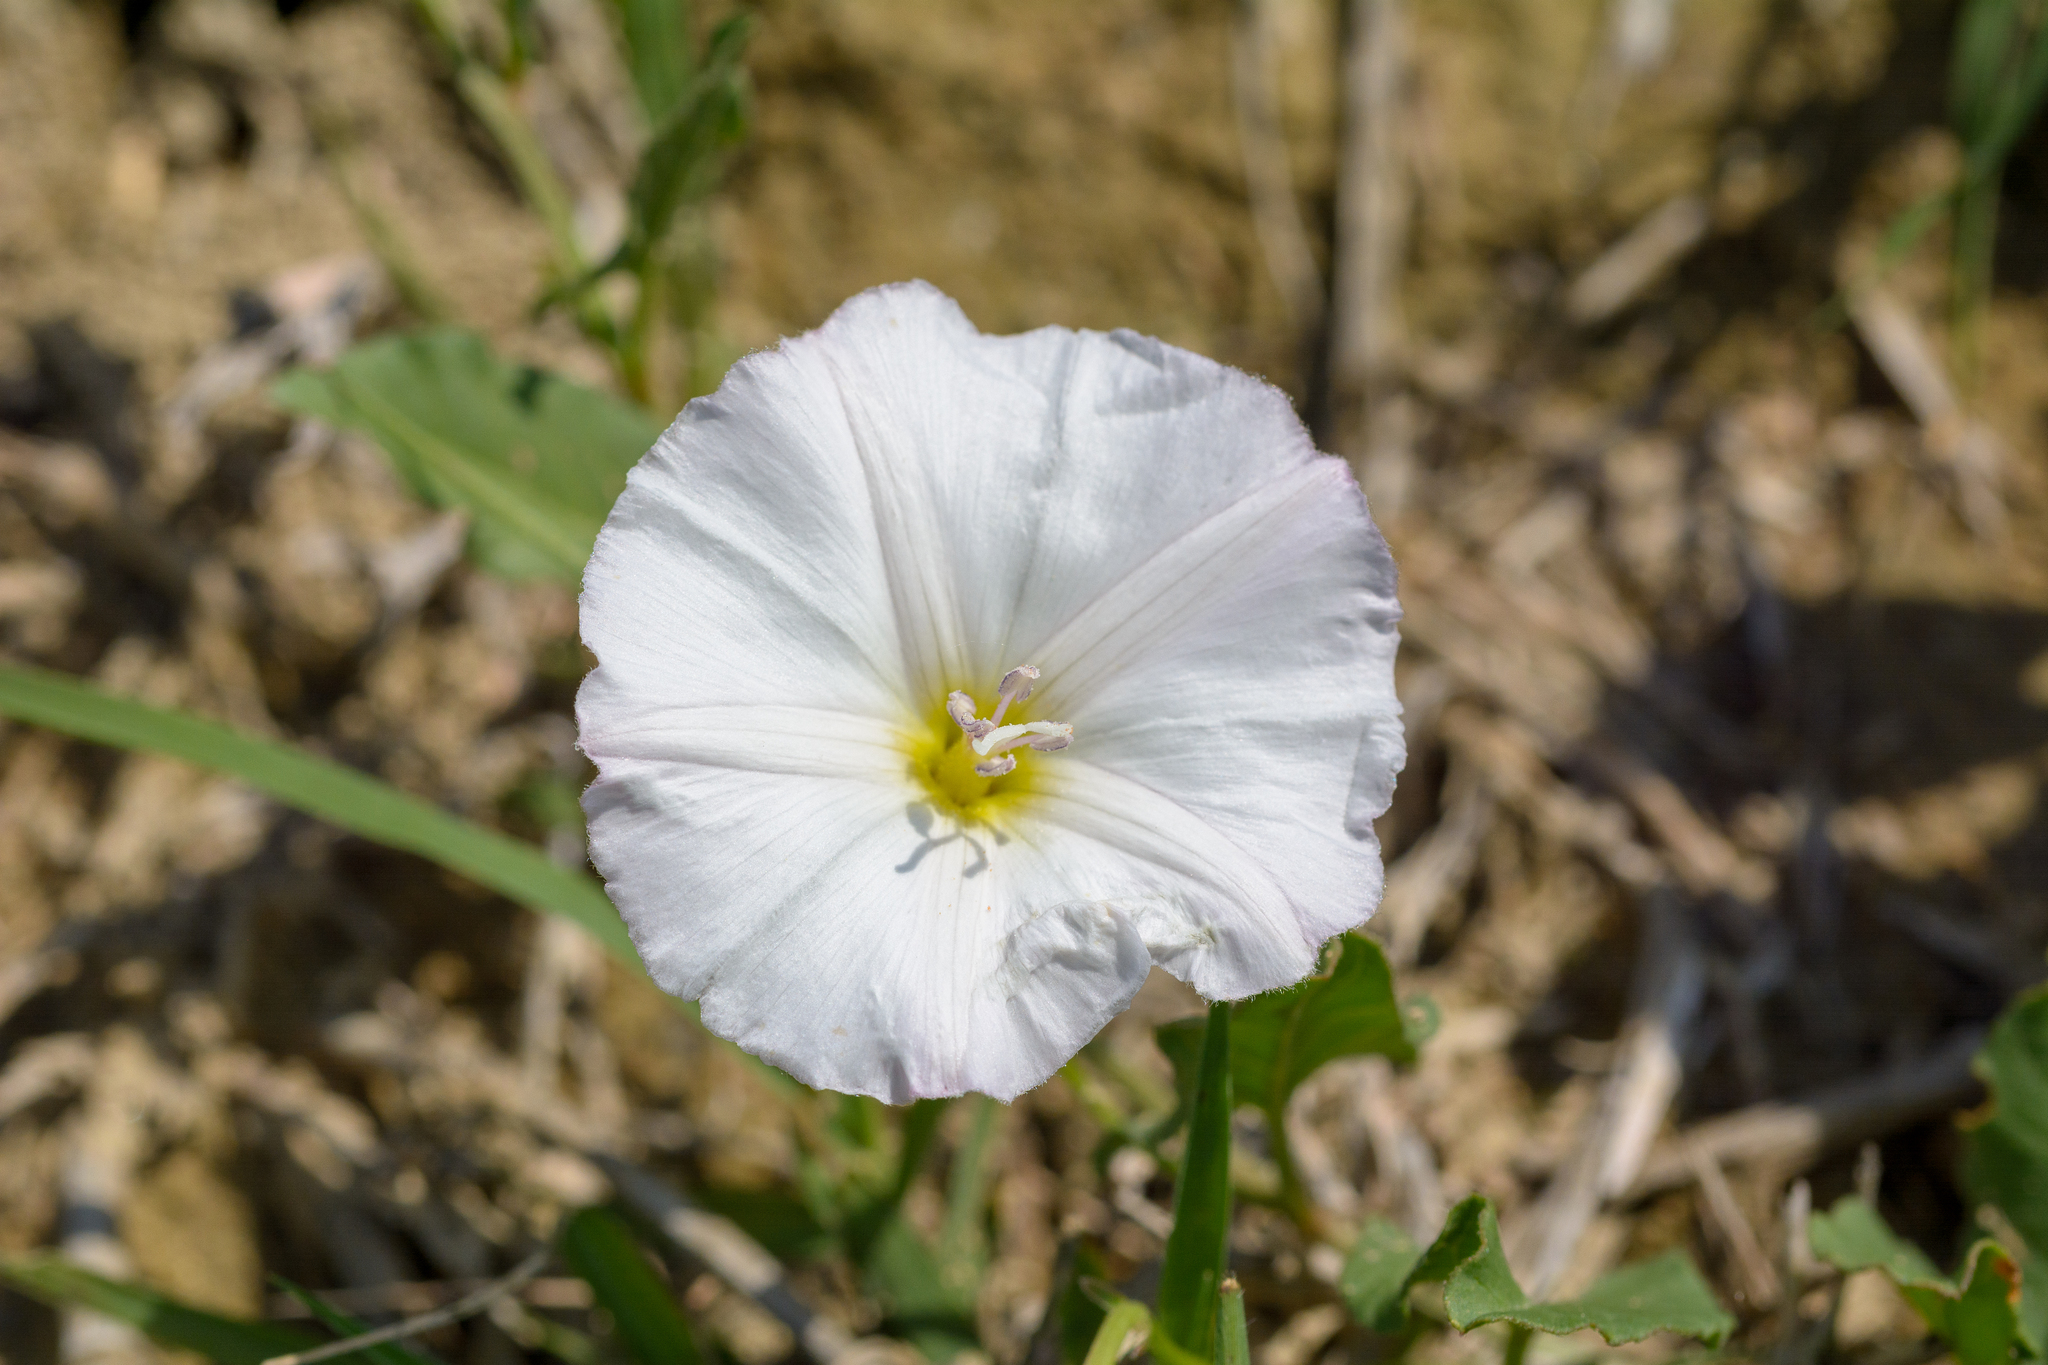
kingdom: Plantae
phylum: Tracheophyta
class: Magnoliopsida
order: Solanales
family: Convolvulaceae
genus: Convolvulus
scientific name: Convolvulus arvensis
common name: Field bindweed
